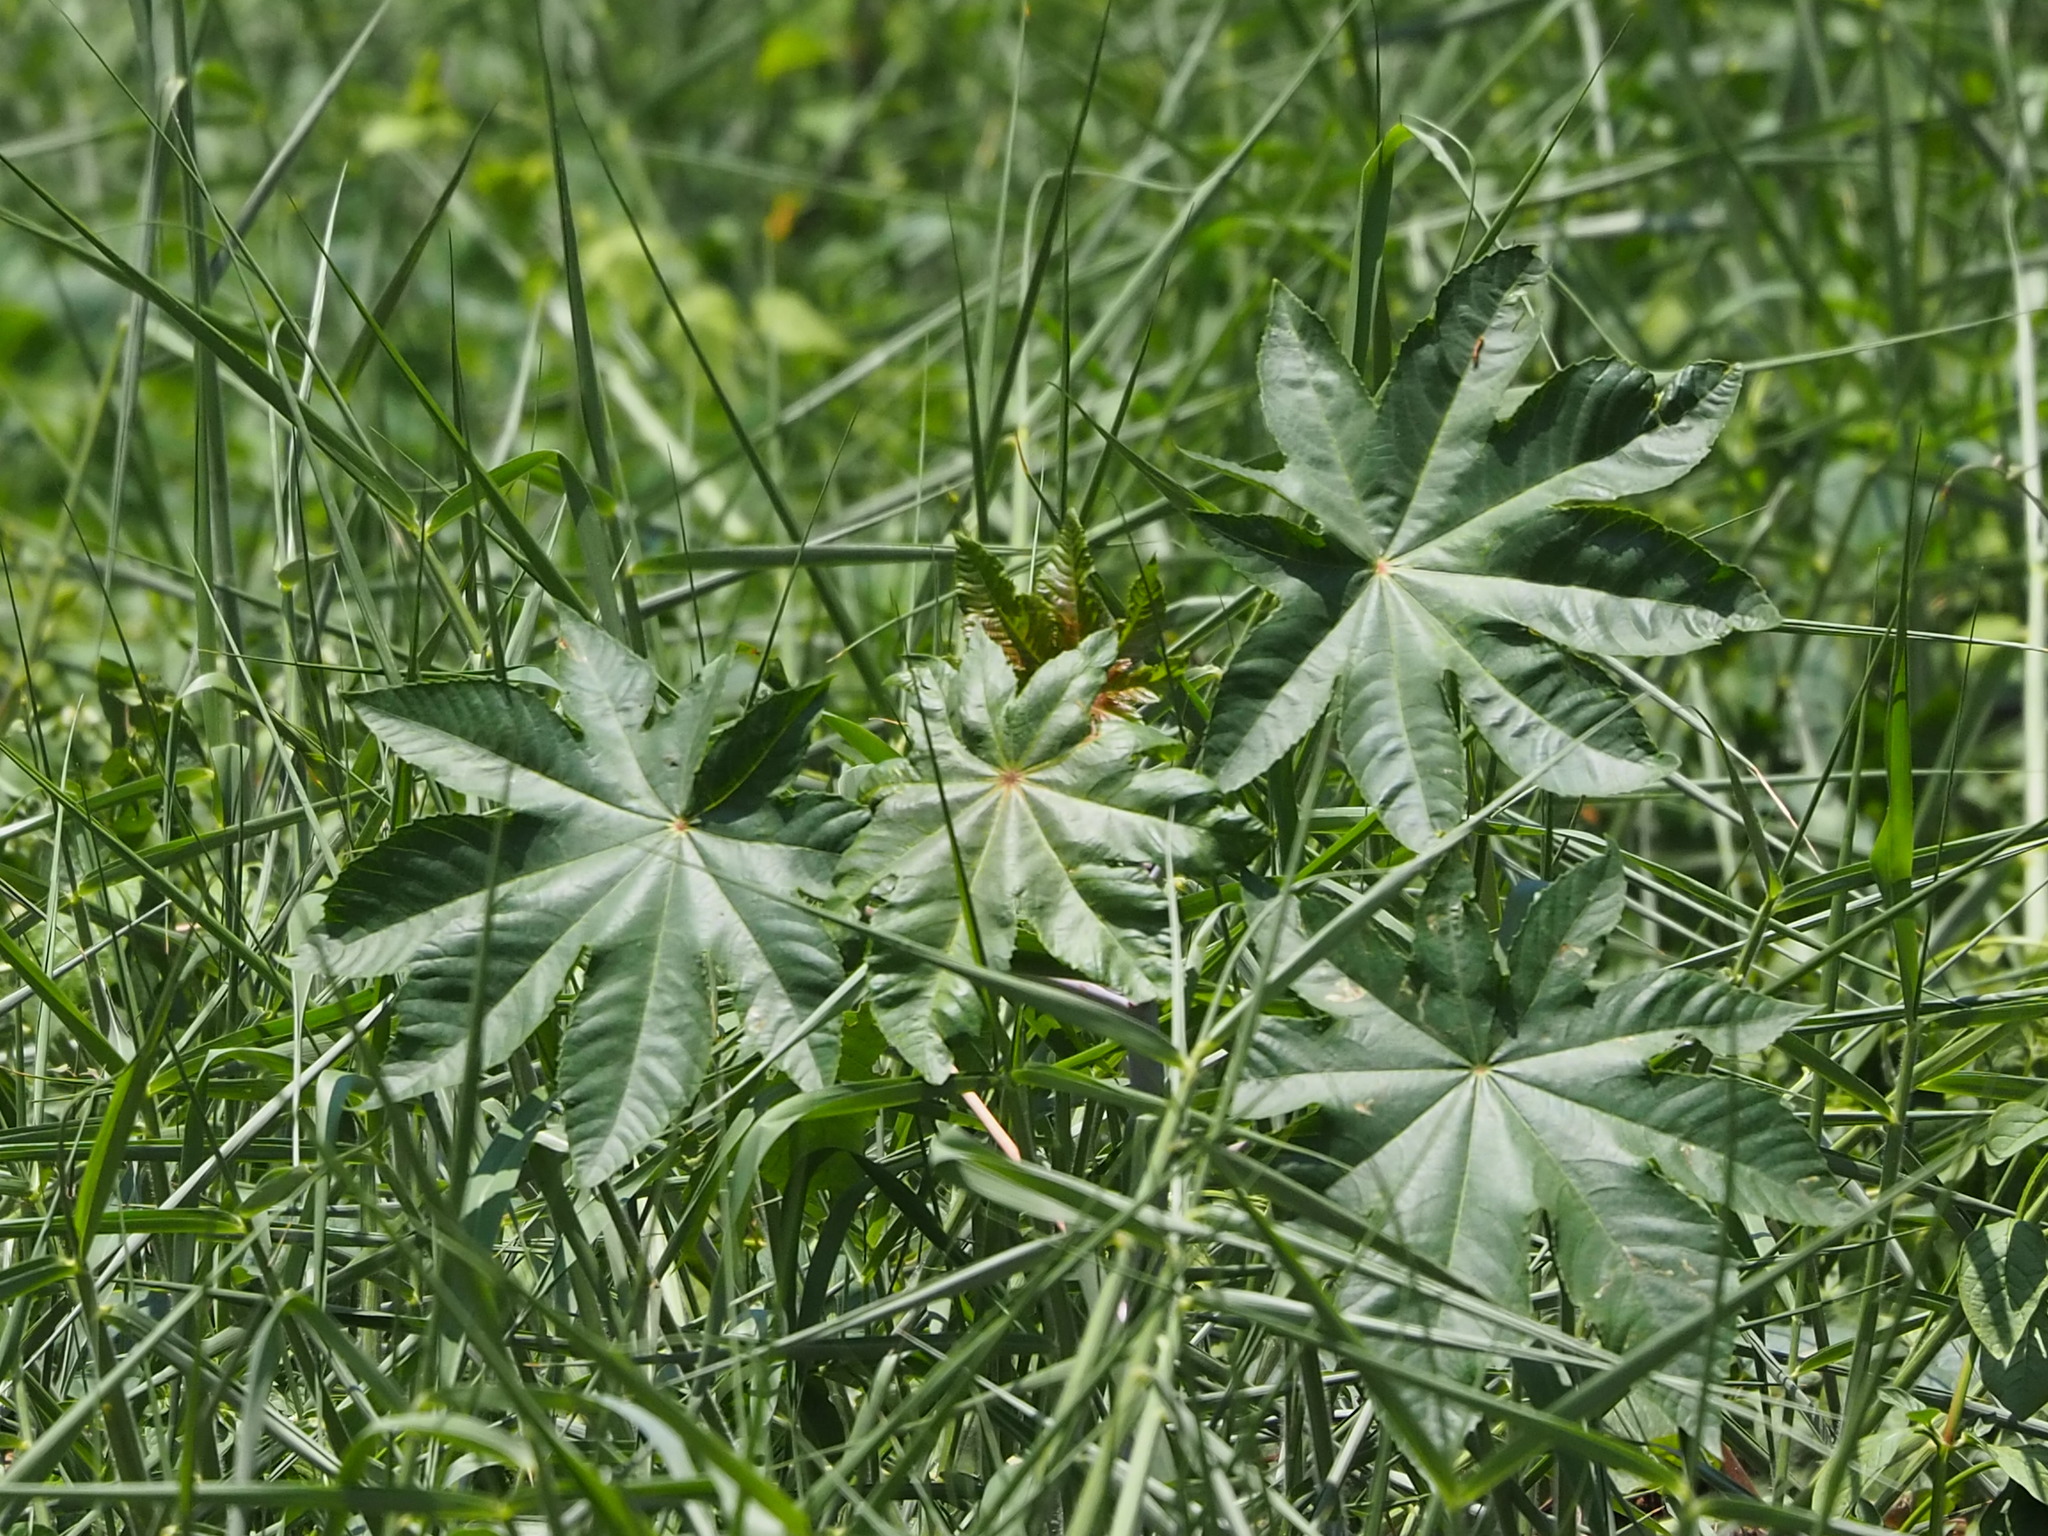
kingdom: Plantae
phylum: Tracheophyta
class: Magnoliopsida
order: Malpighiales
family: Euphorbiaceae
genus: Ricinus
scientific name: Ricinus communis
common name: Castor-oil-plant
